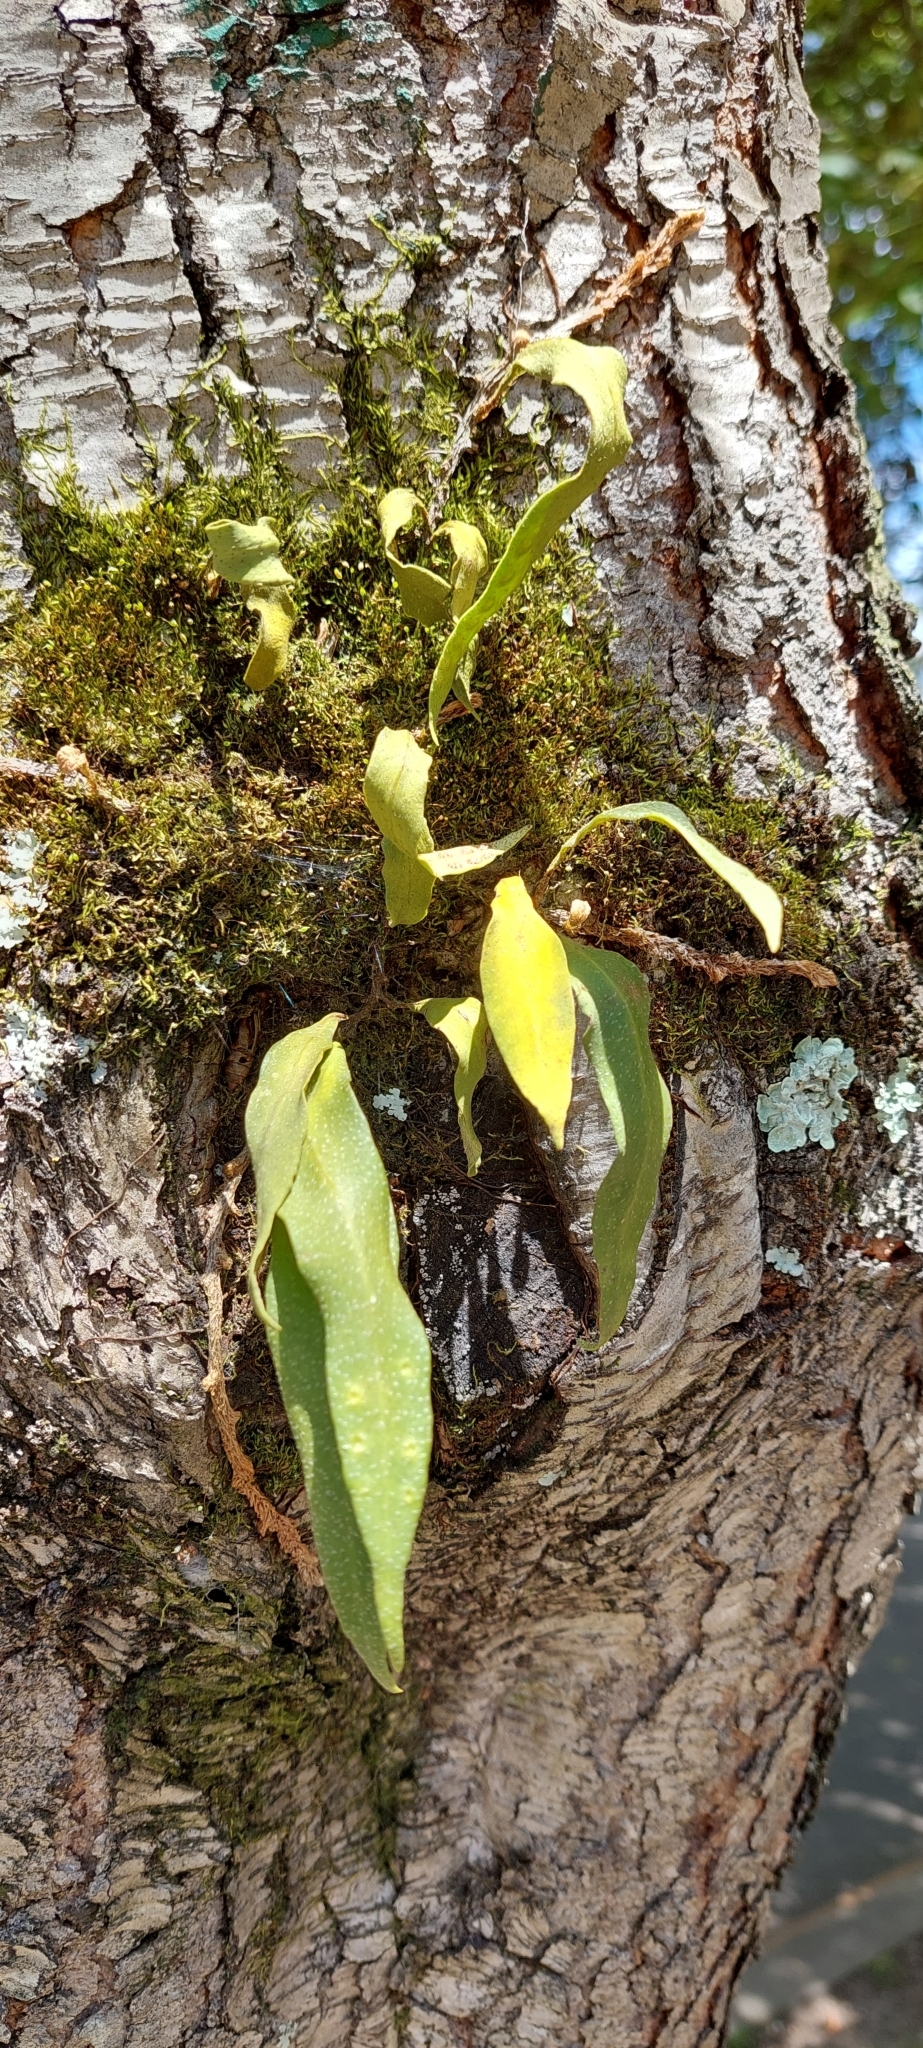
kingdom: Plantae
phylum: Tracheophyta
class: Polypodiopsida
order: Polypodiales
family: Polypodiaceae
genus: Pleopeltis
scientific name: Pleopeltis macrocarpa
